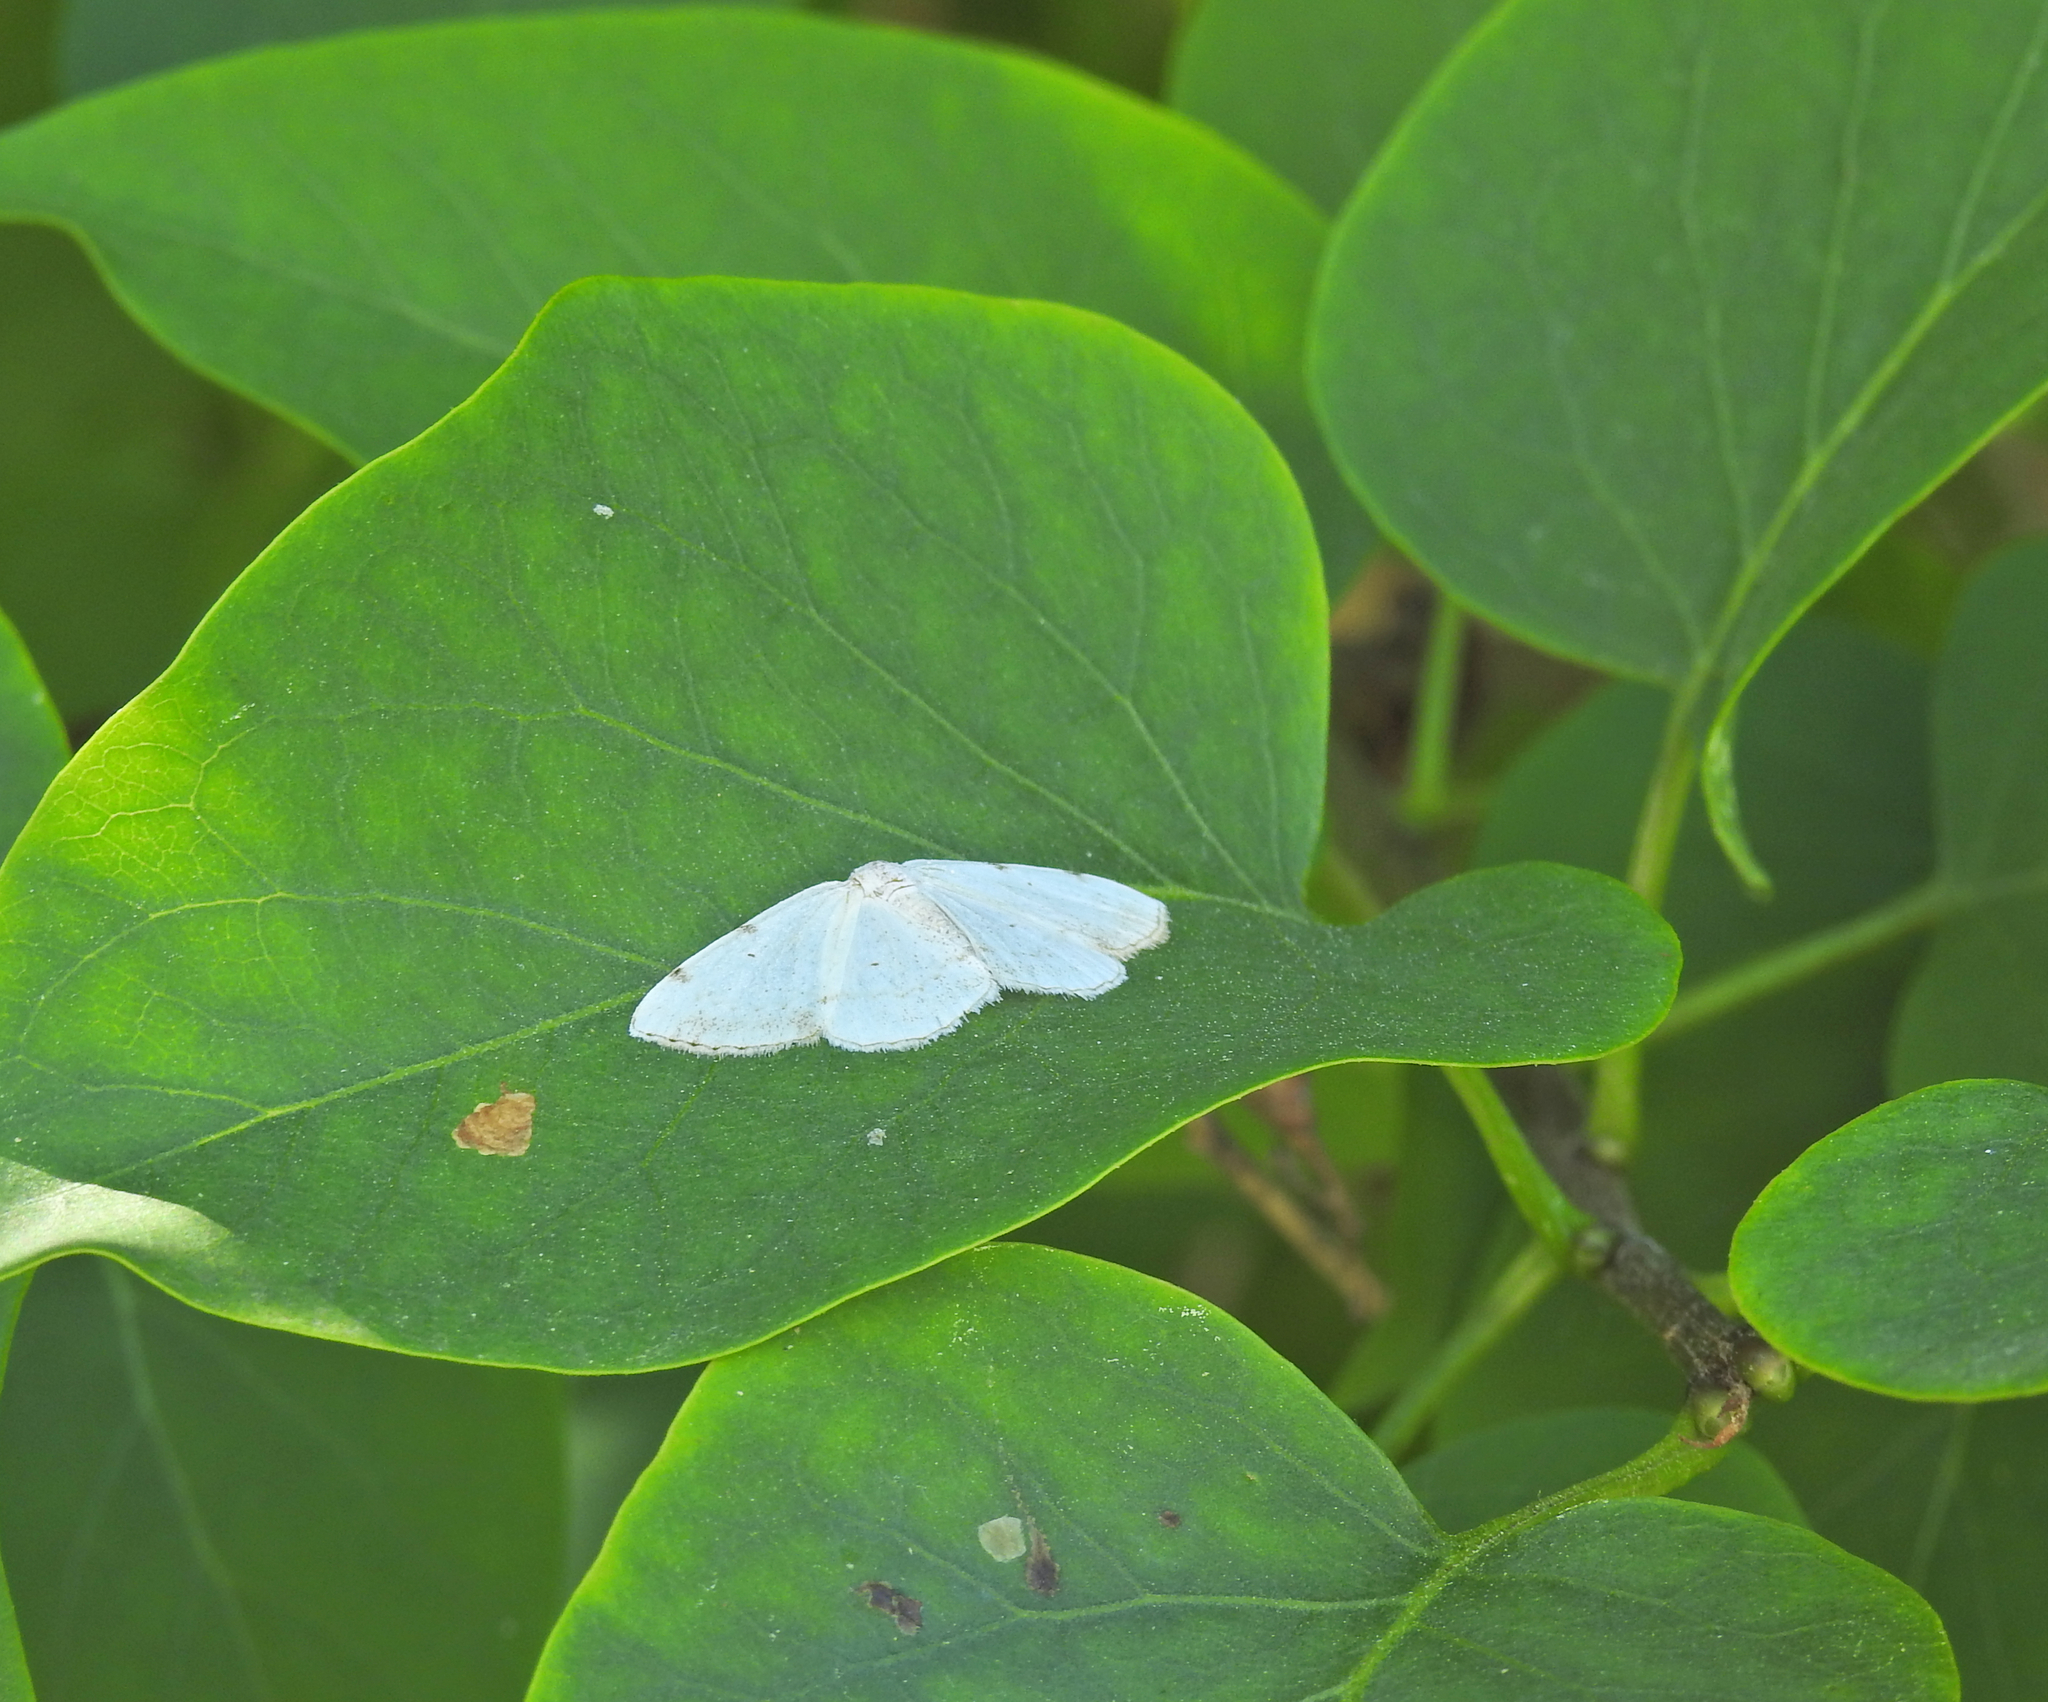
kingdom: Animalia
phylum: Arthropoda
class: Insecta
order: Lepidoptera
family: Geometridae
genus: Lomographa
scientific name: Lomographa bimaculata
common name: White-pinion spotted
